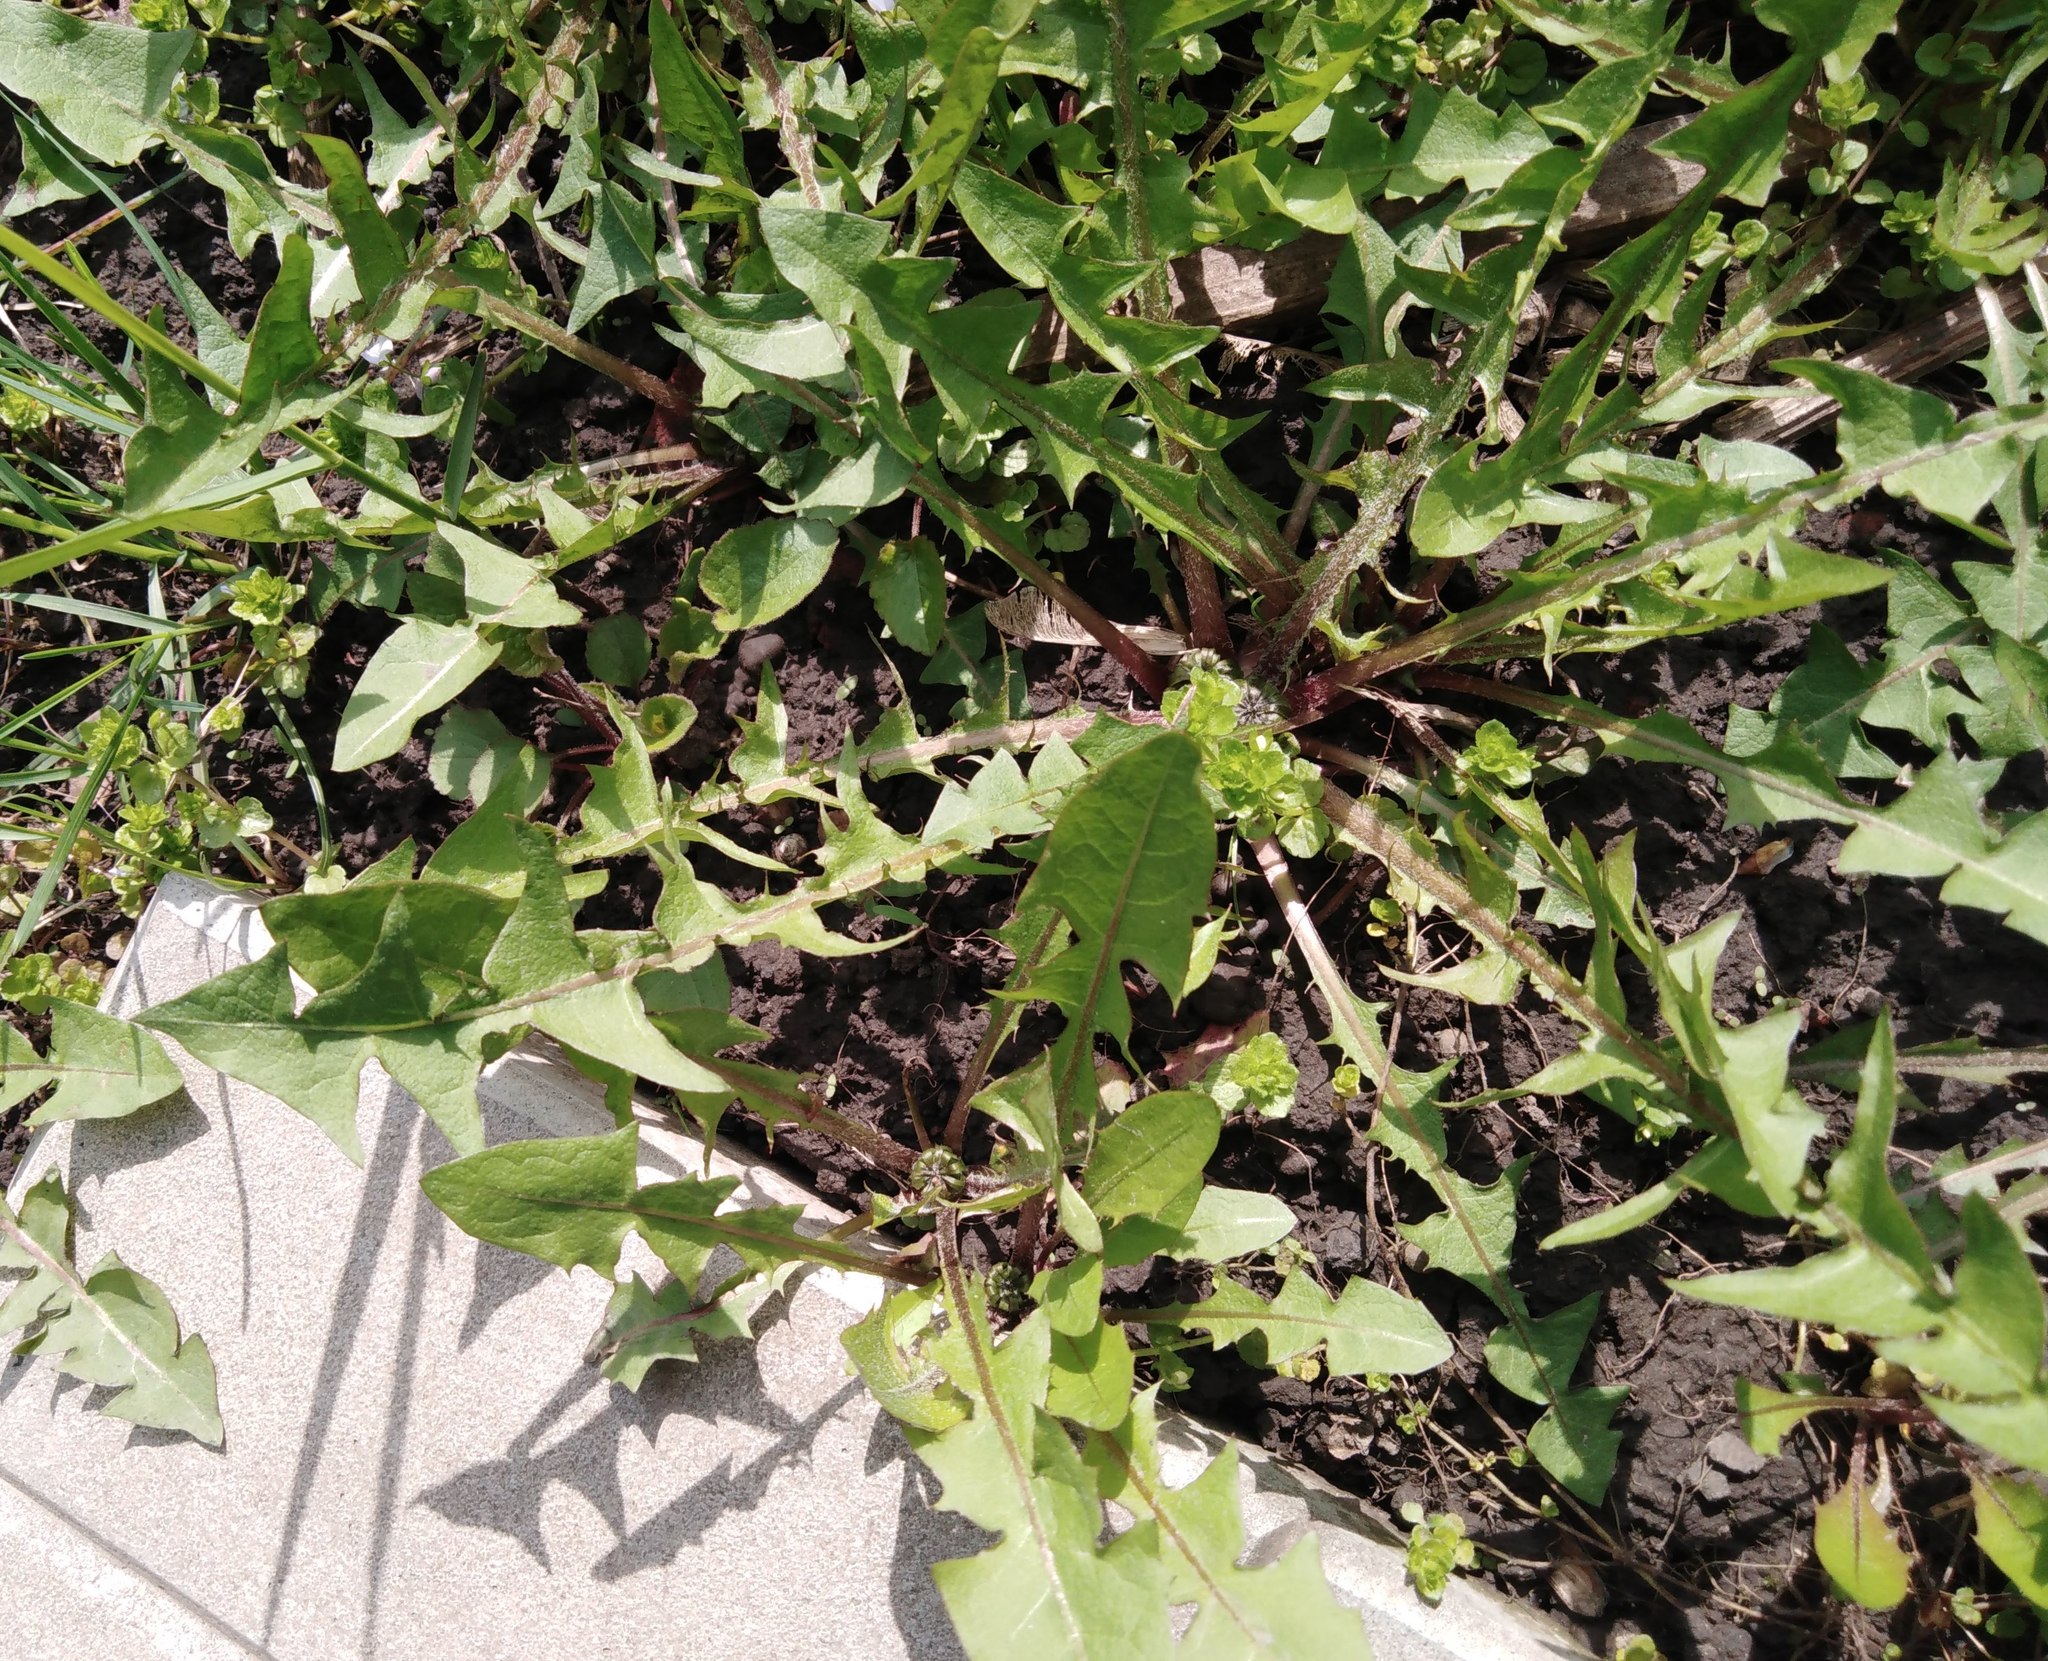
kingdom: Plantae
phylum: Tracheophyta
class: Magnoliopsida
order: Asterales
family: Asteraceae
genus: Taraxacum
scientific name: Taraxacum officinale
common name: Common dandelion
